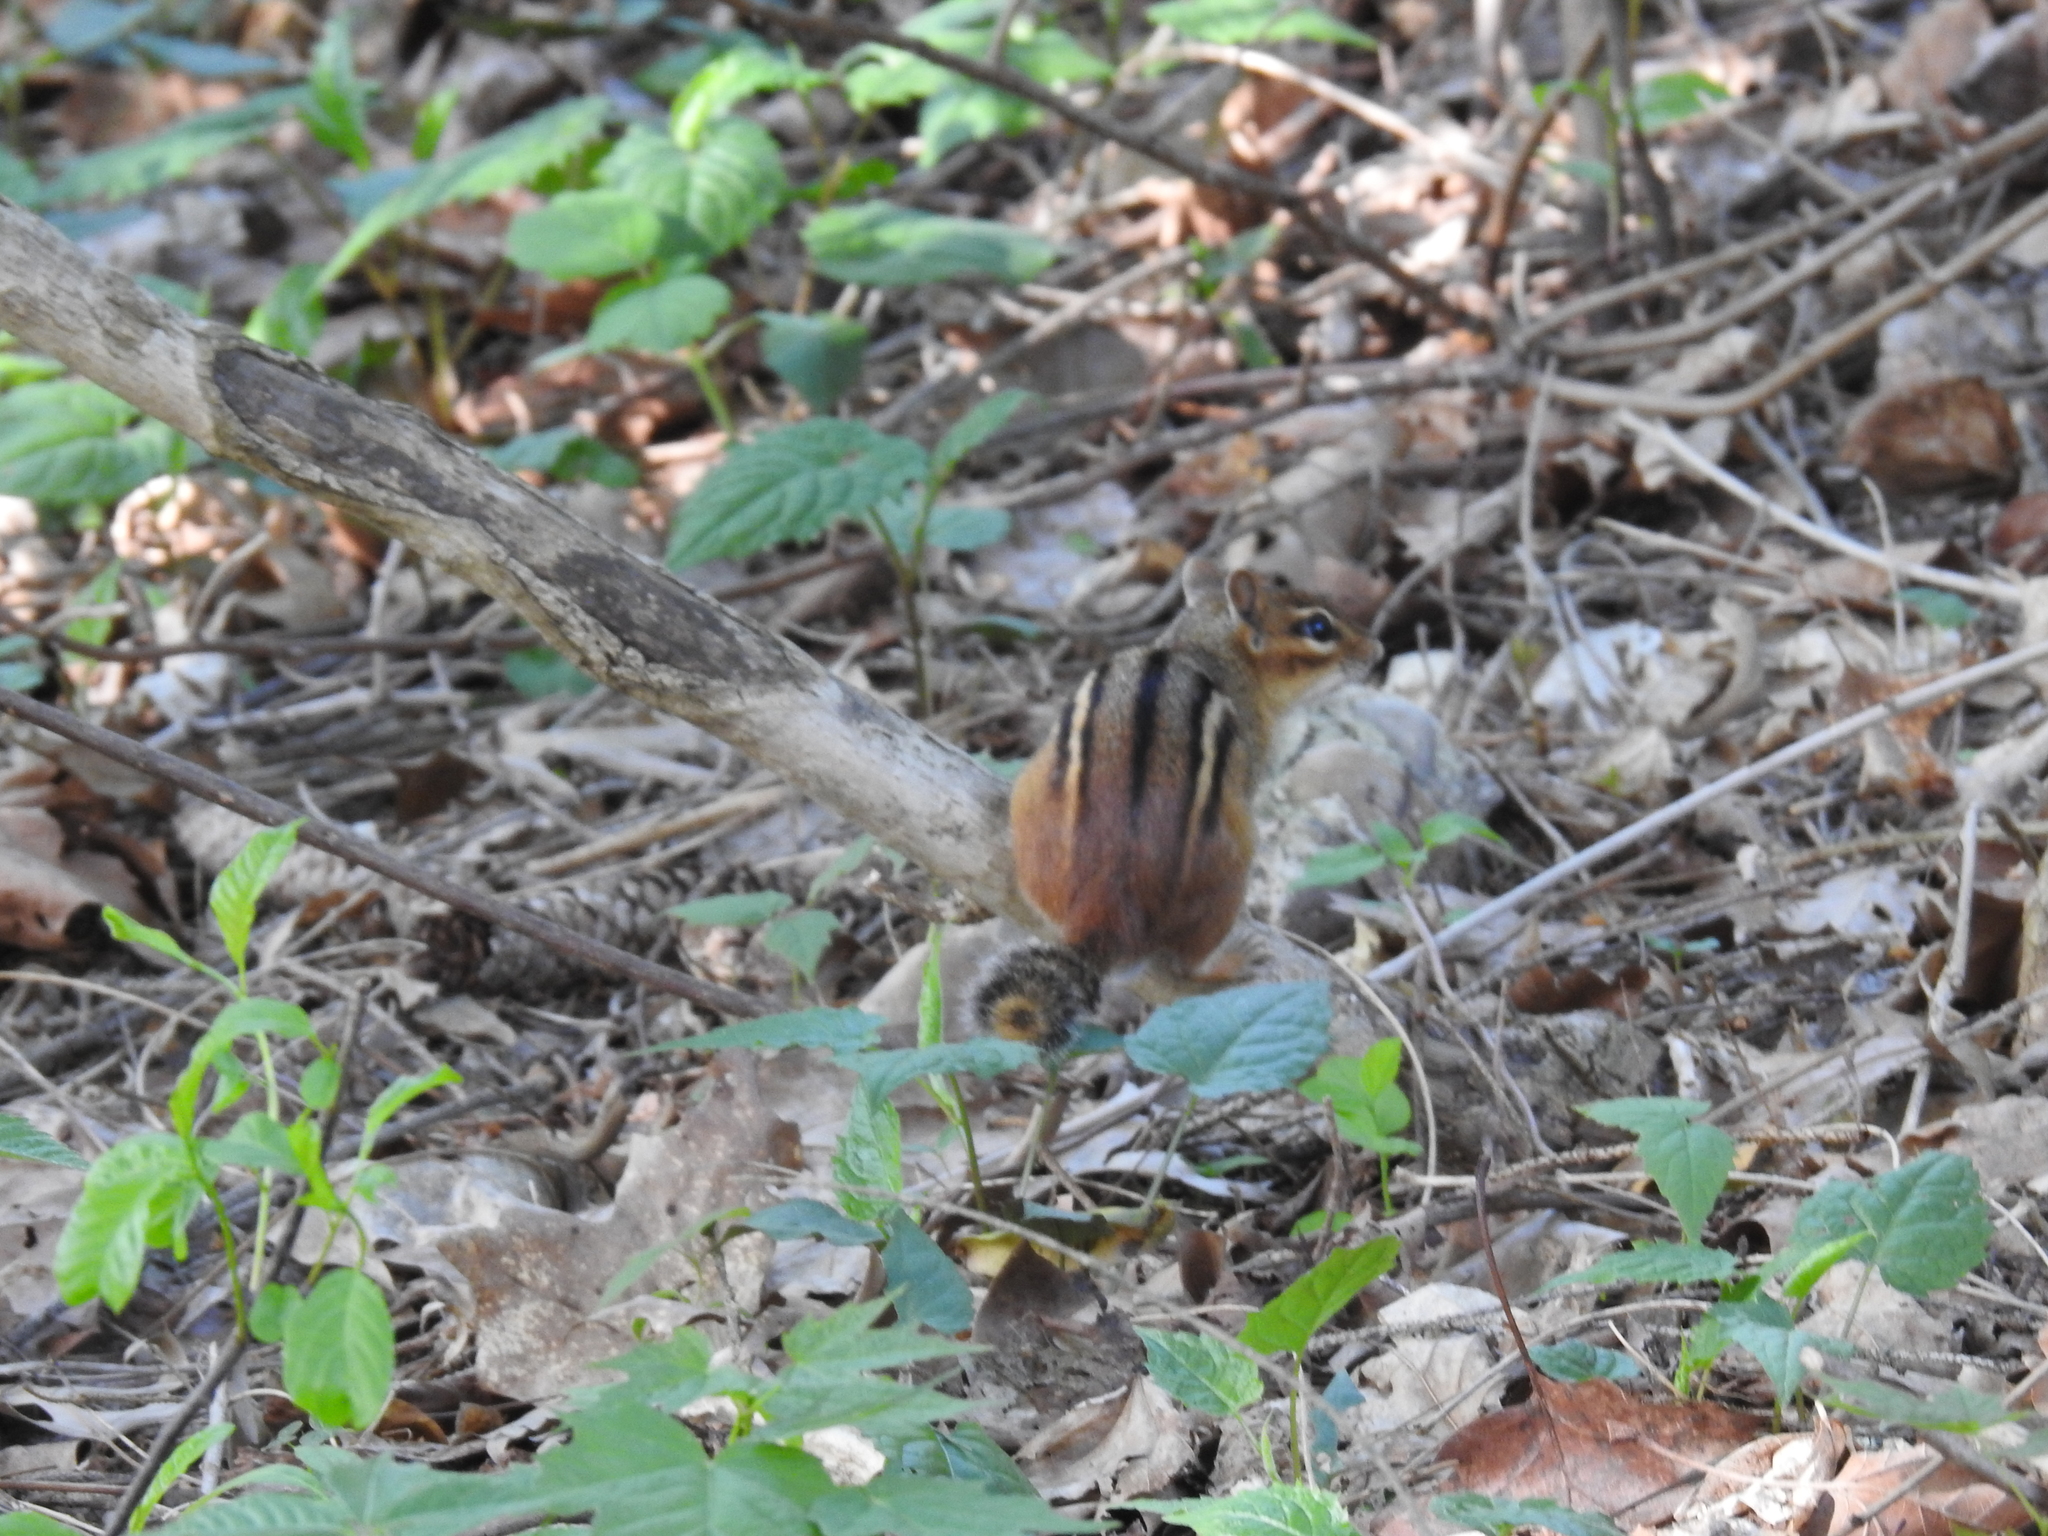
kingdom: Animalia
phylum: Chordata
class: Mammalia
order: Rodentia
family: Sciuridae
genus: Tamias
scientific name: Tamias striatus
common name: Eastern chipmunk
